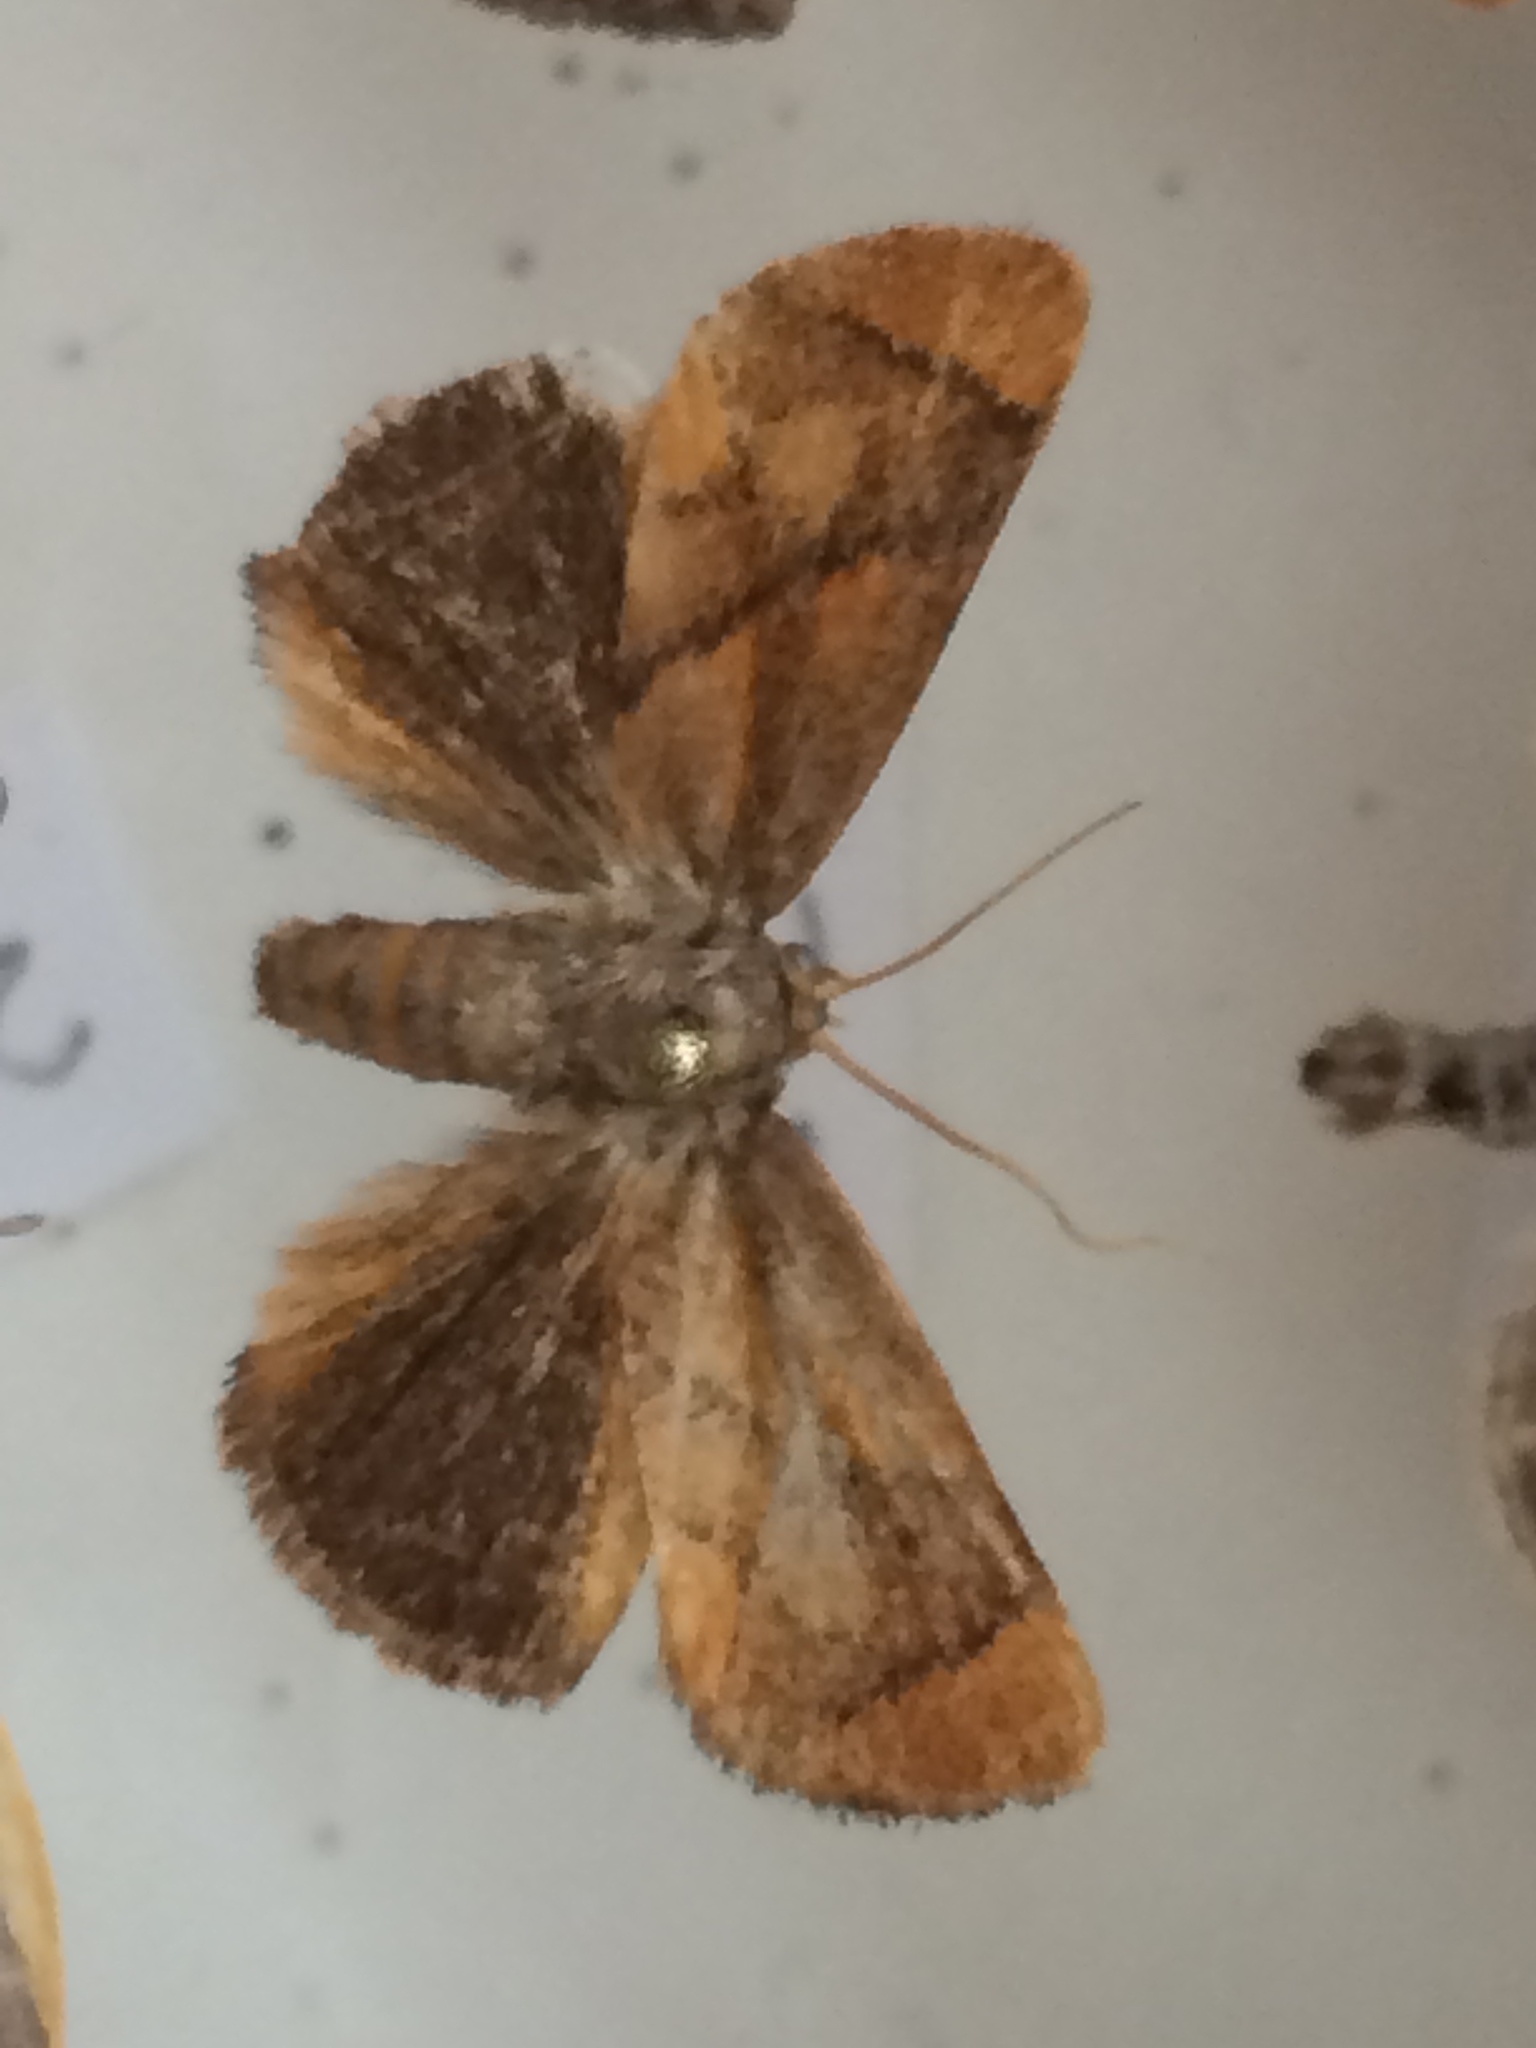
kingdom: Animalia
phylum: Arthropoda
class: Insecta
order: Lepidoptera
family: Limacodidae
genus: Apoda
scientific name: Apoda limacodes
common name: Festoon
